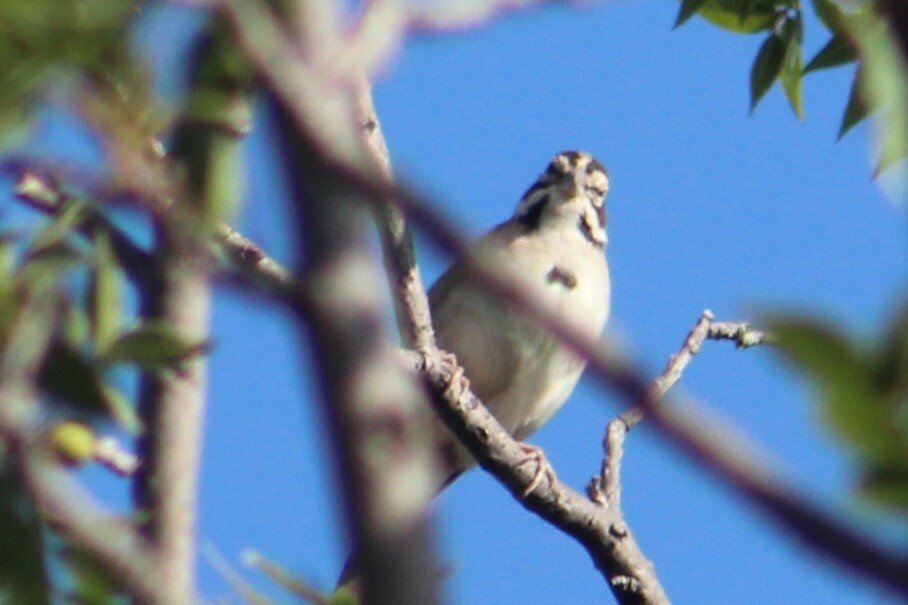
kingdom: Animalia
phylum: Chordata
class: Aves
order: Passeriformes
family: Passerellidae
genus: Chondestes
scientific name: Chondestes grammacus
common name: Lark sparrow
